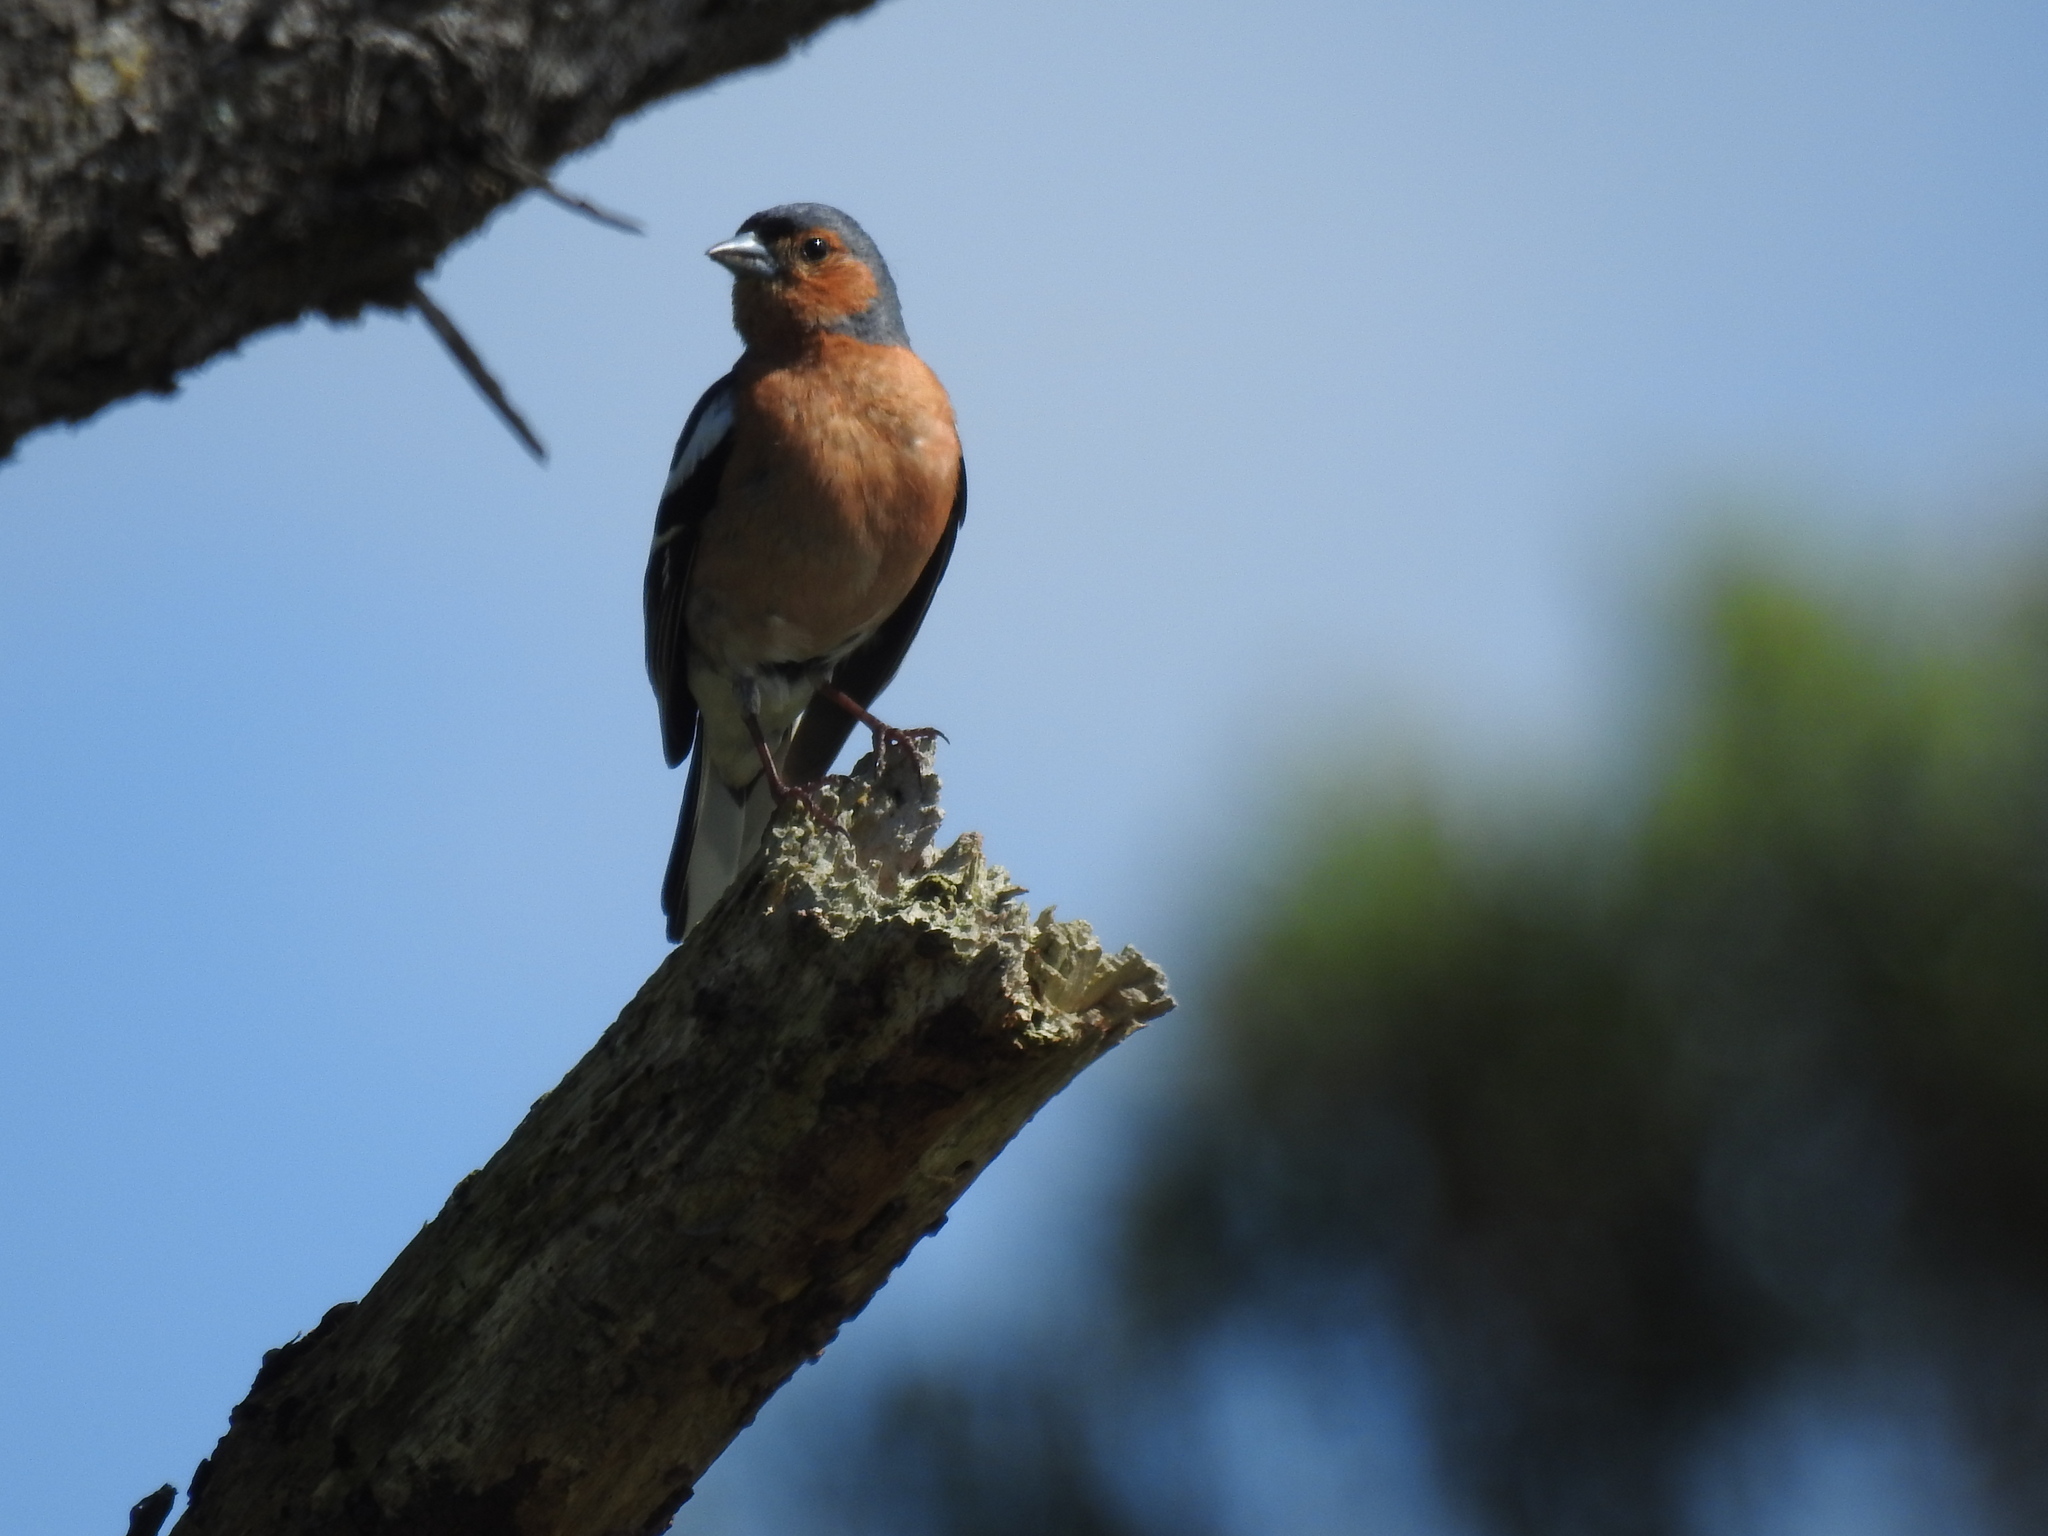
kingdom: Animalia
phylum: Chordata
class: Aves
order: Passeriformes
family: Fringillidae
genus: Fringilla
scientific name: Fringilla coelebs
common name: Common chaffinch
